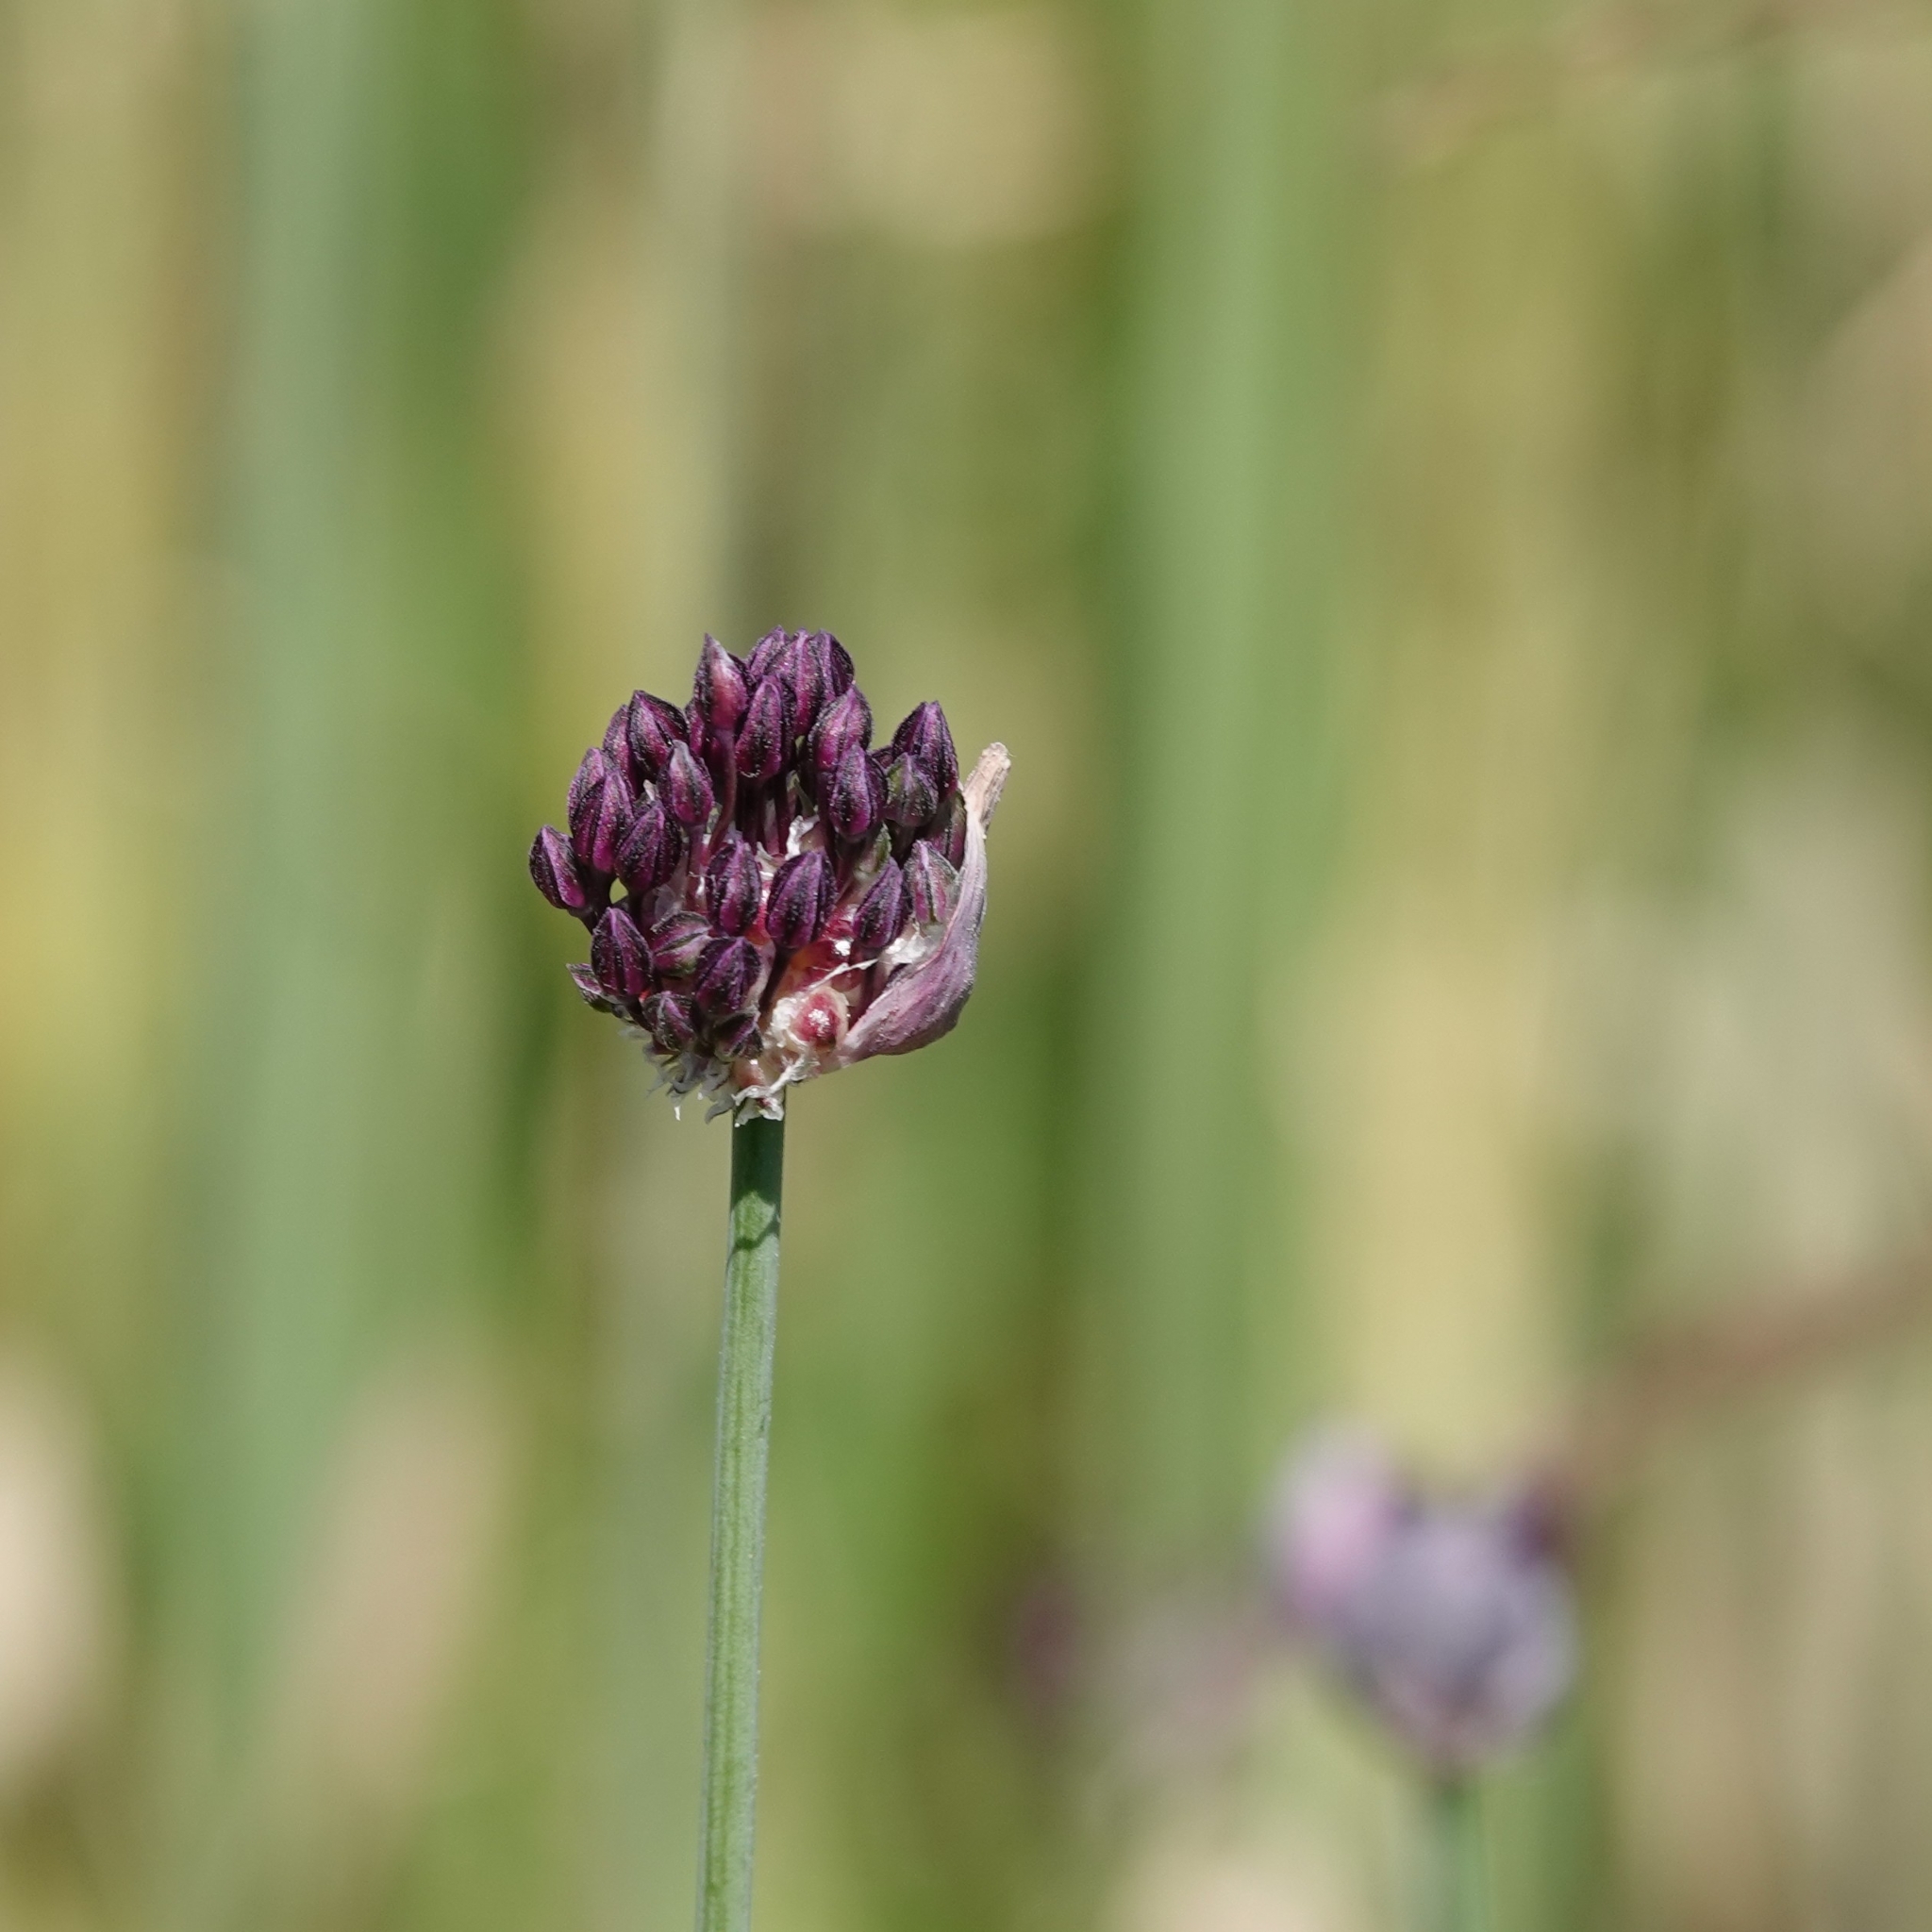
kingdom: Plantae
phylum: Tracheophyta
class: Liliopsida
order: Asparagales
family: Amaryllidaceae
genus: Allium
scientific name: Allium scorodoprasum
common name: Sand leek
